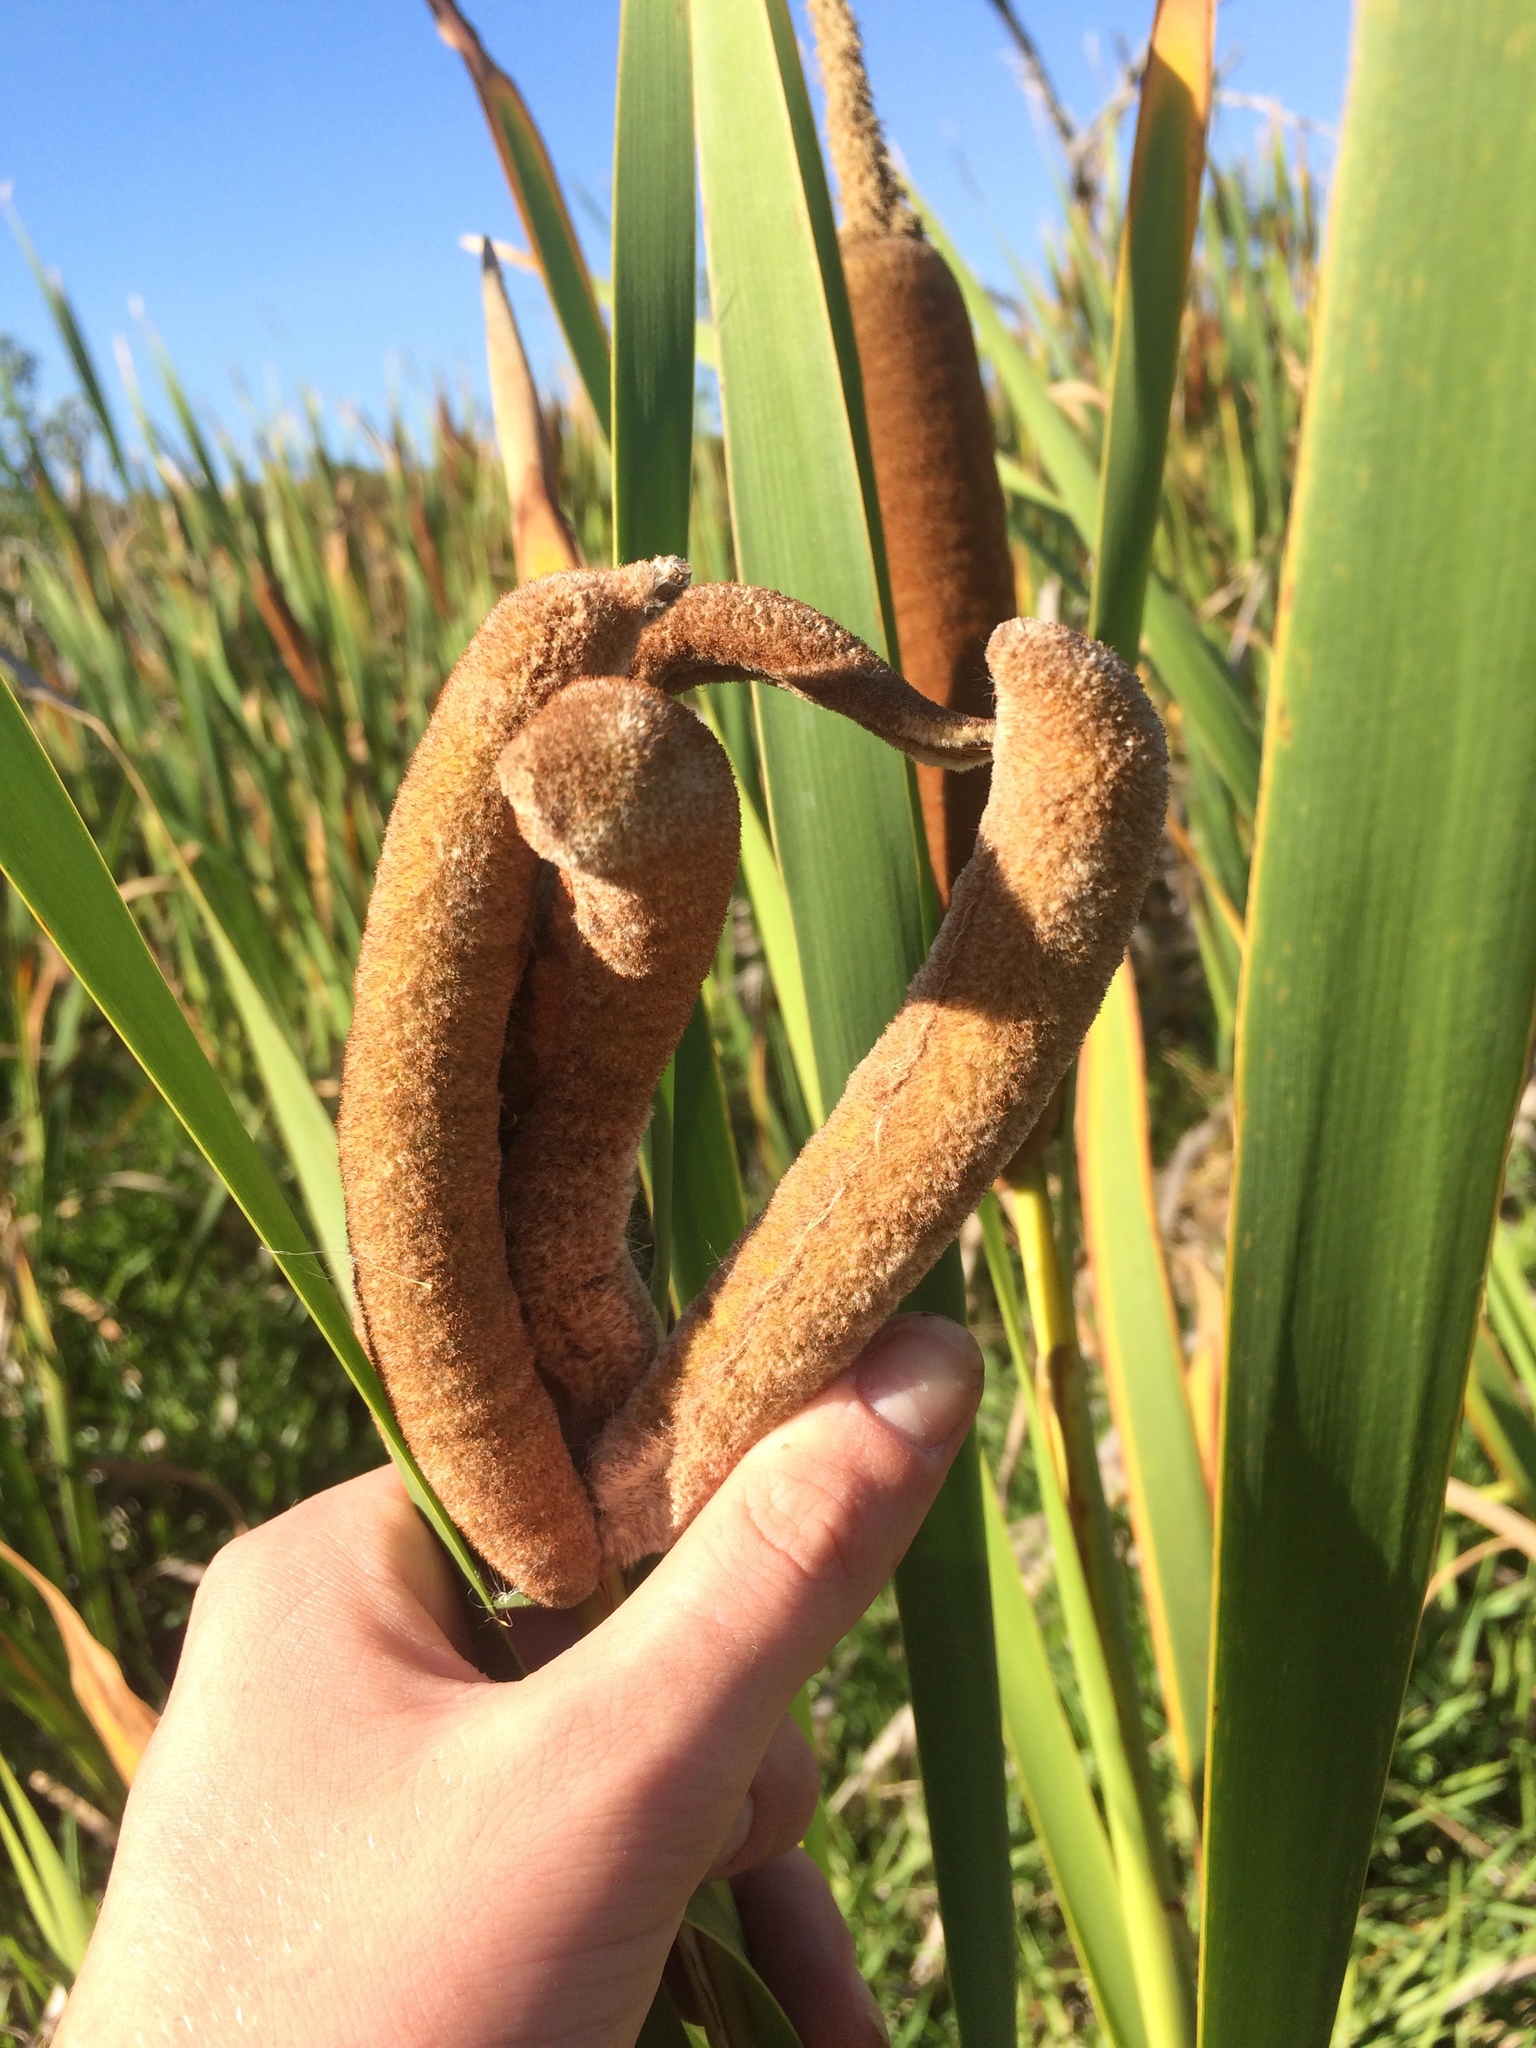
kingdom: Plantae
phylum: Tracheophyta
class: Liliopsida
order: Poales
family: Typhaceae
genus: Typha
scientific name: Typha capensis
